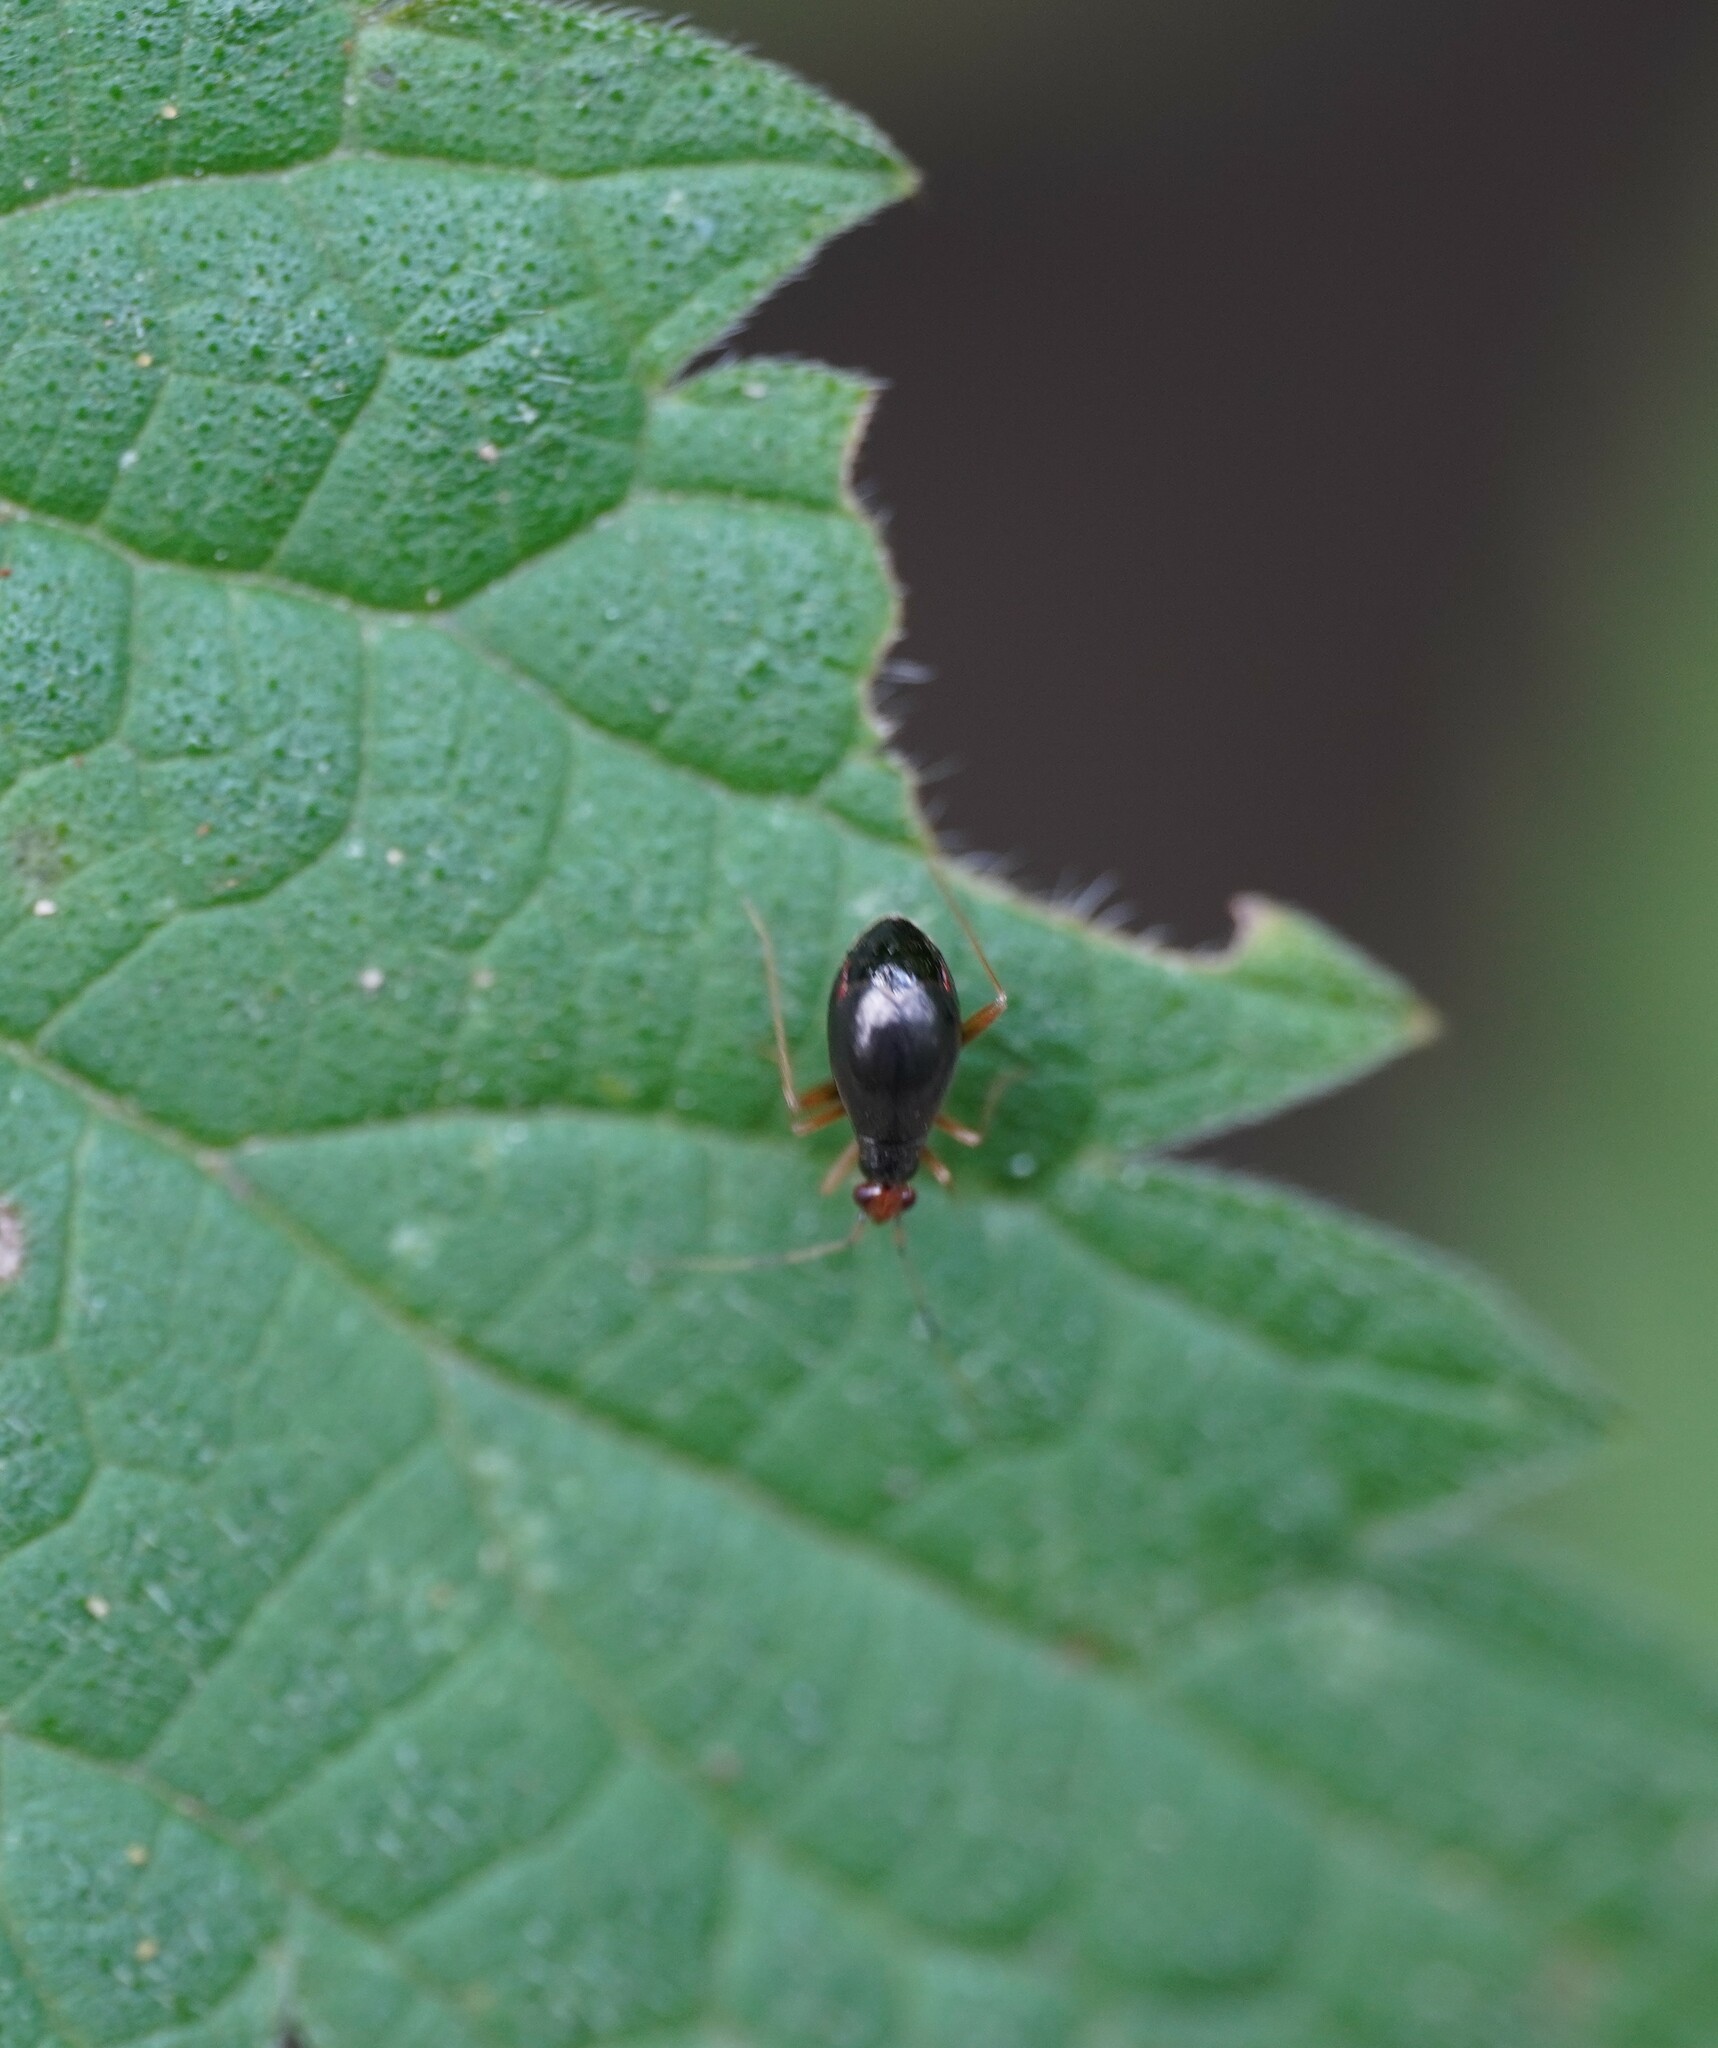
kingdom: Animalia
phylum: Arthropoda
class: Insecta
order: Hemiptera
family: Miridae
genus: Orthonotus
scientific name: Orthonotus rufifrons
